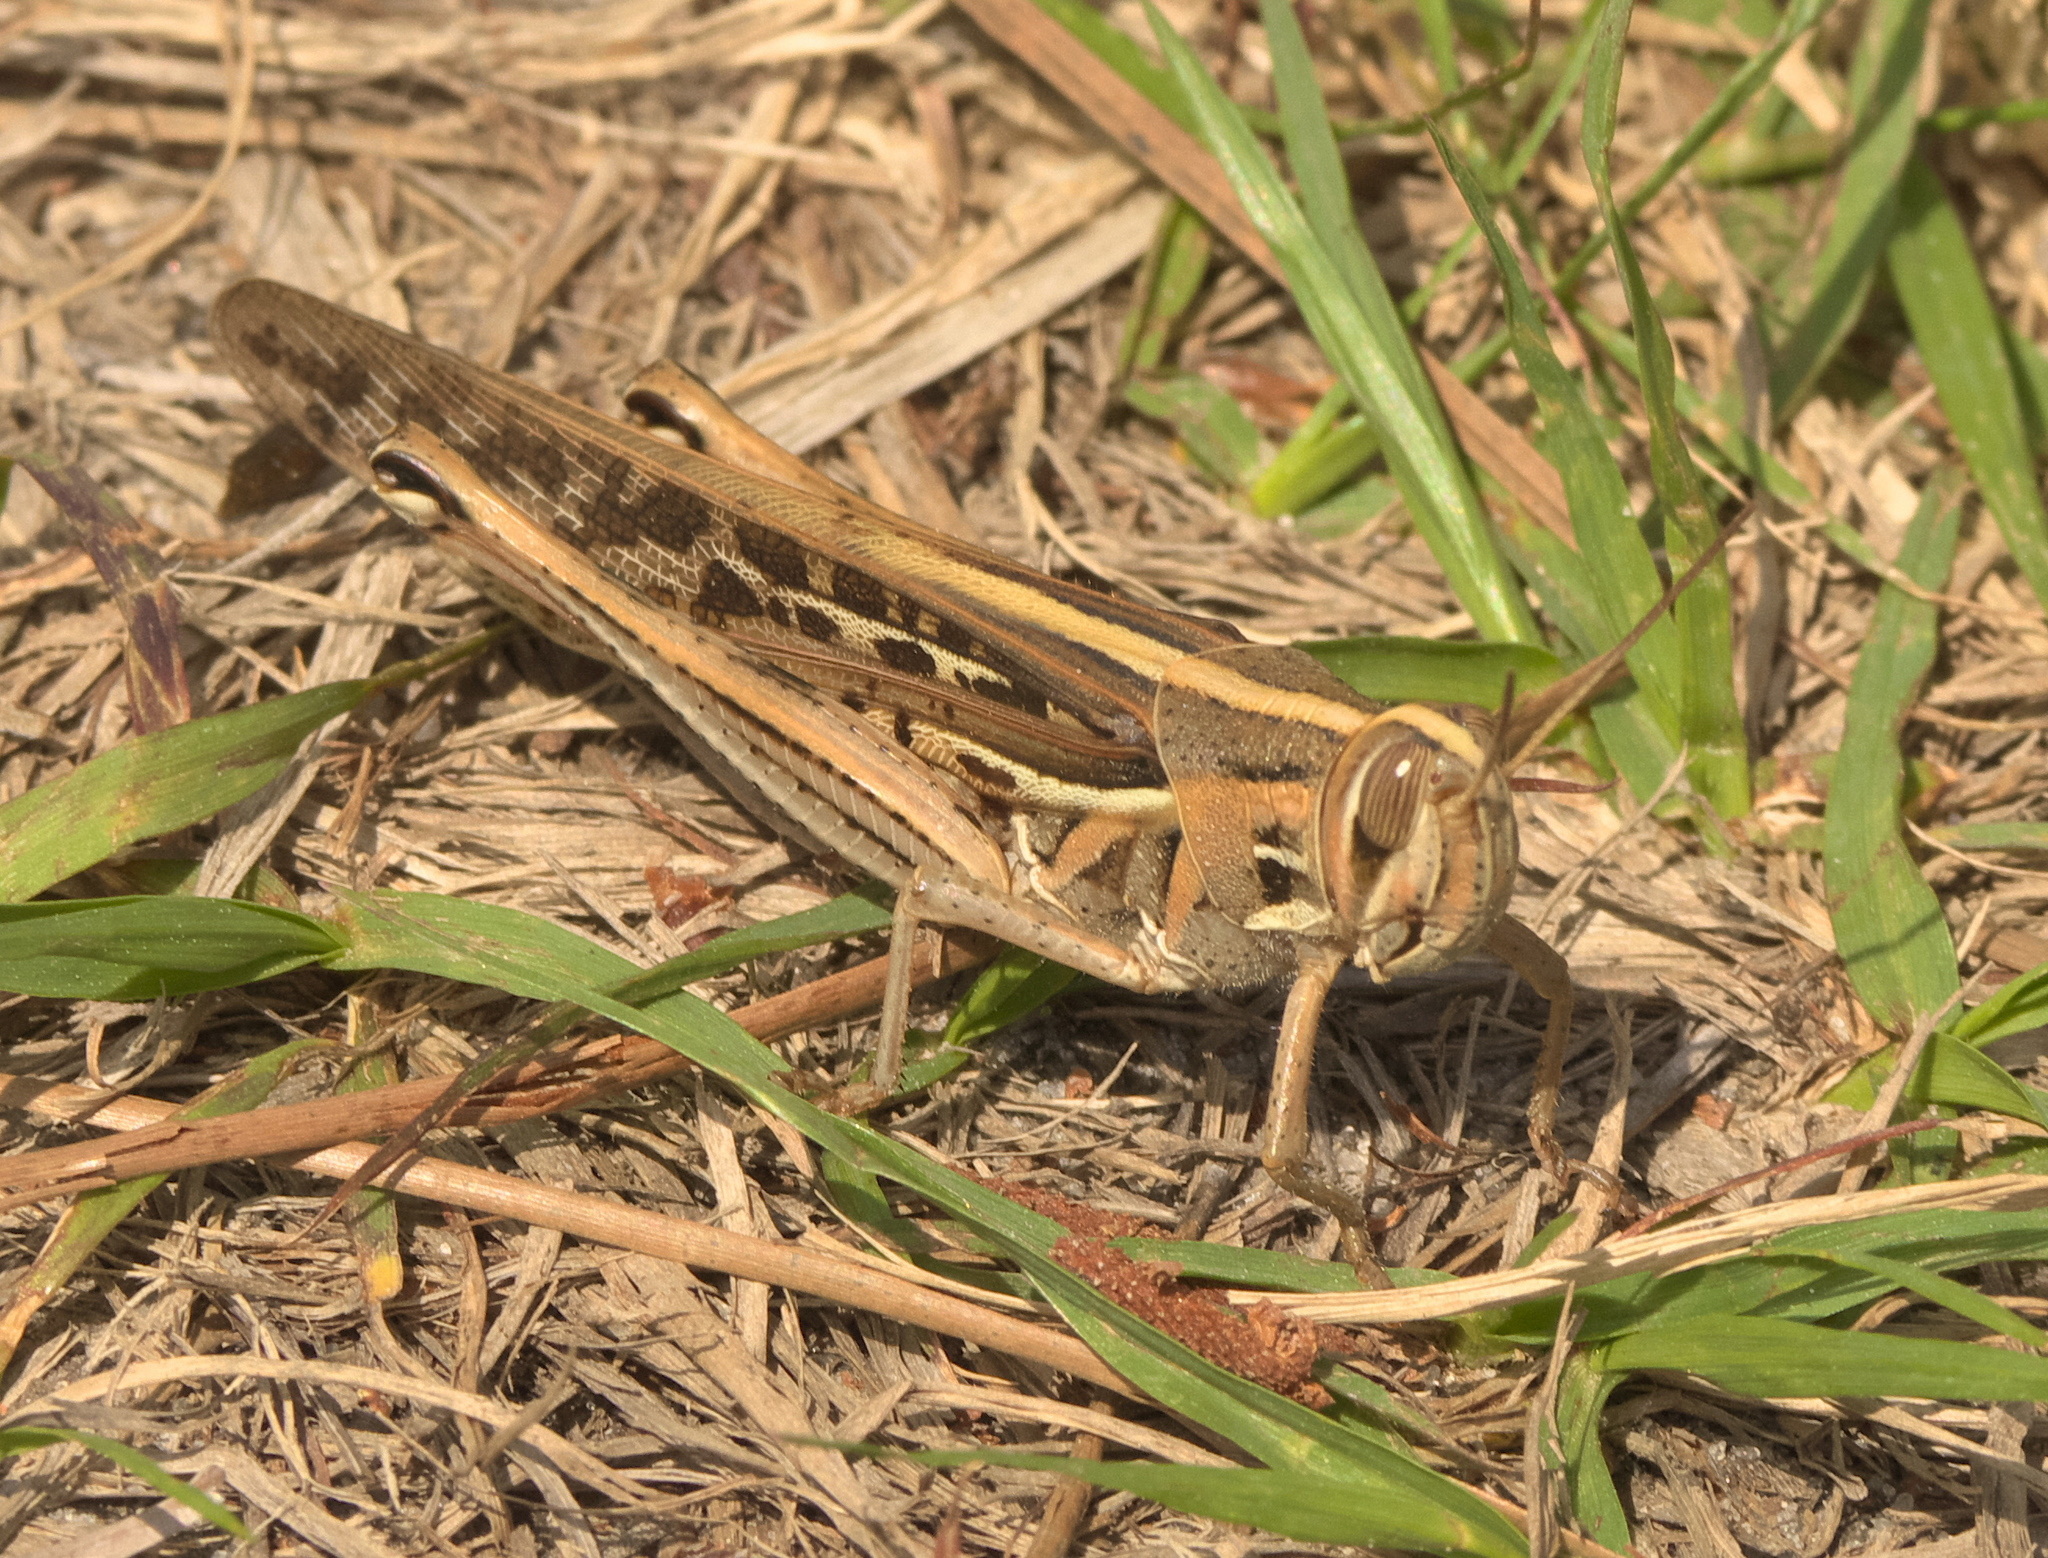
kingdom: Animalia
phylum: Arthropoda
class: Insecta
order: Orthoptera
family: Acrididae
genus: Schistocerca
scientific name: Schistocerca americana
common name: American bird locust
